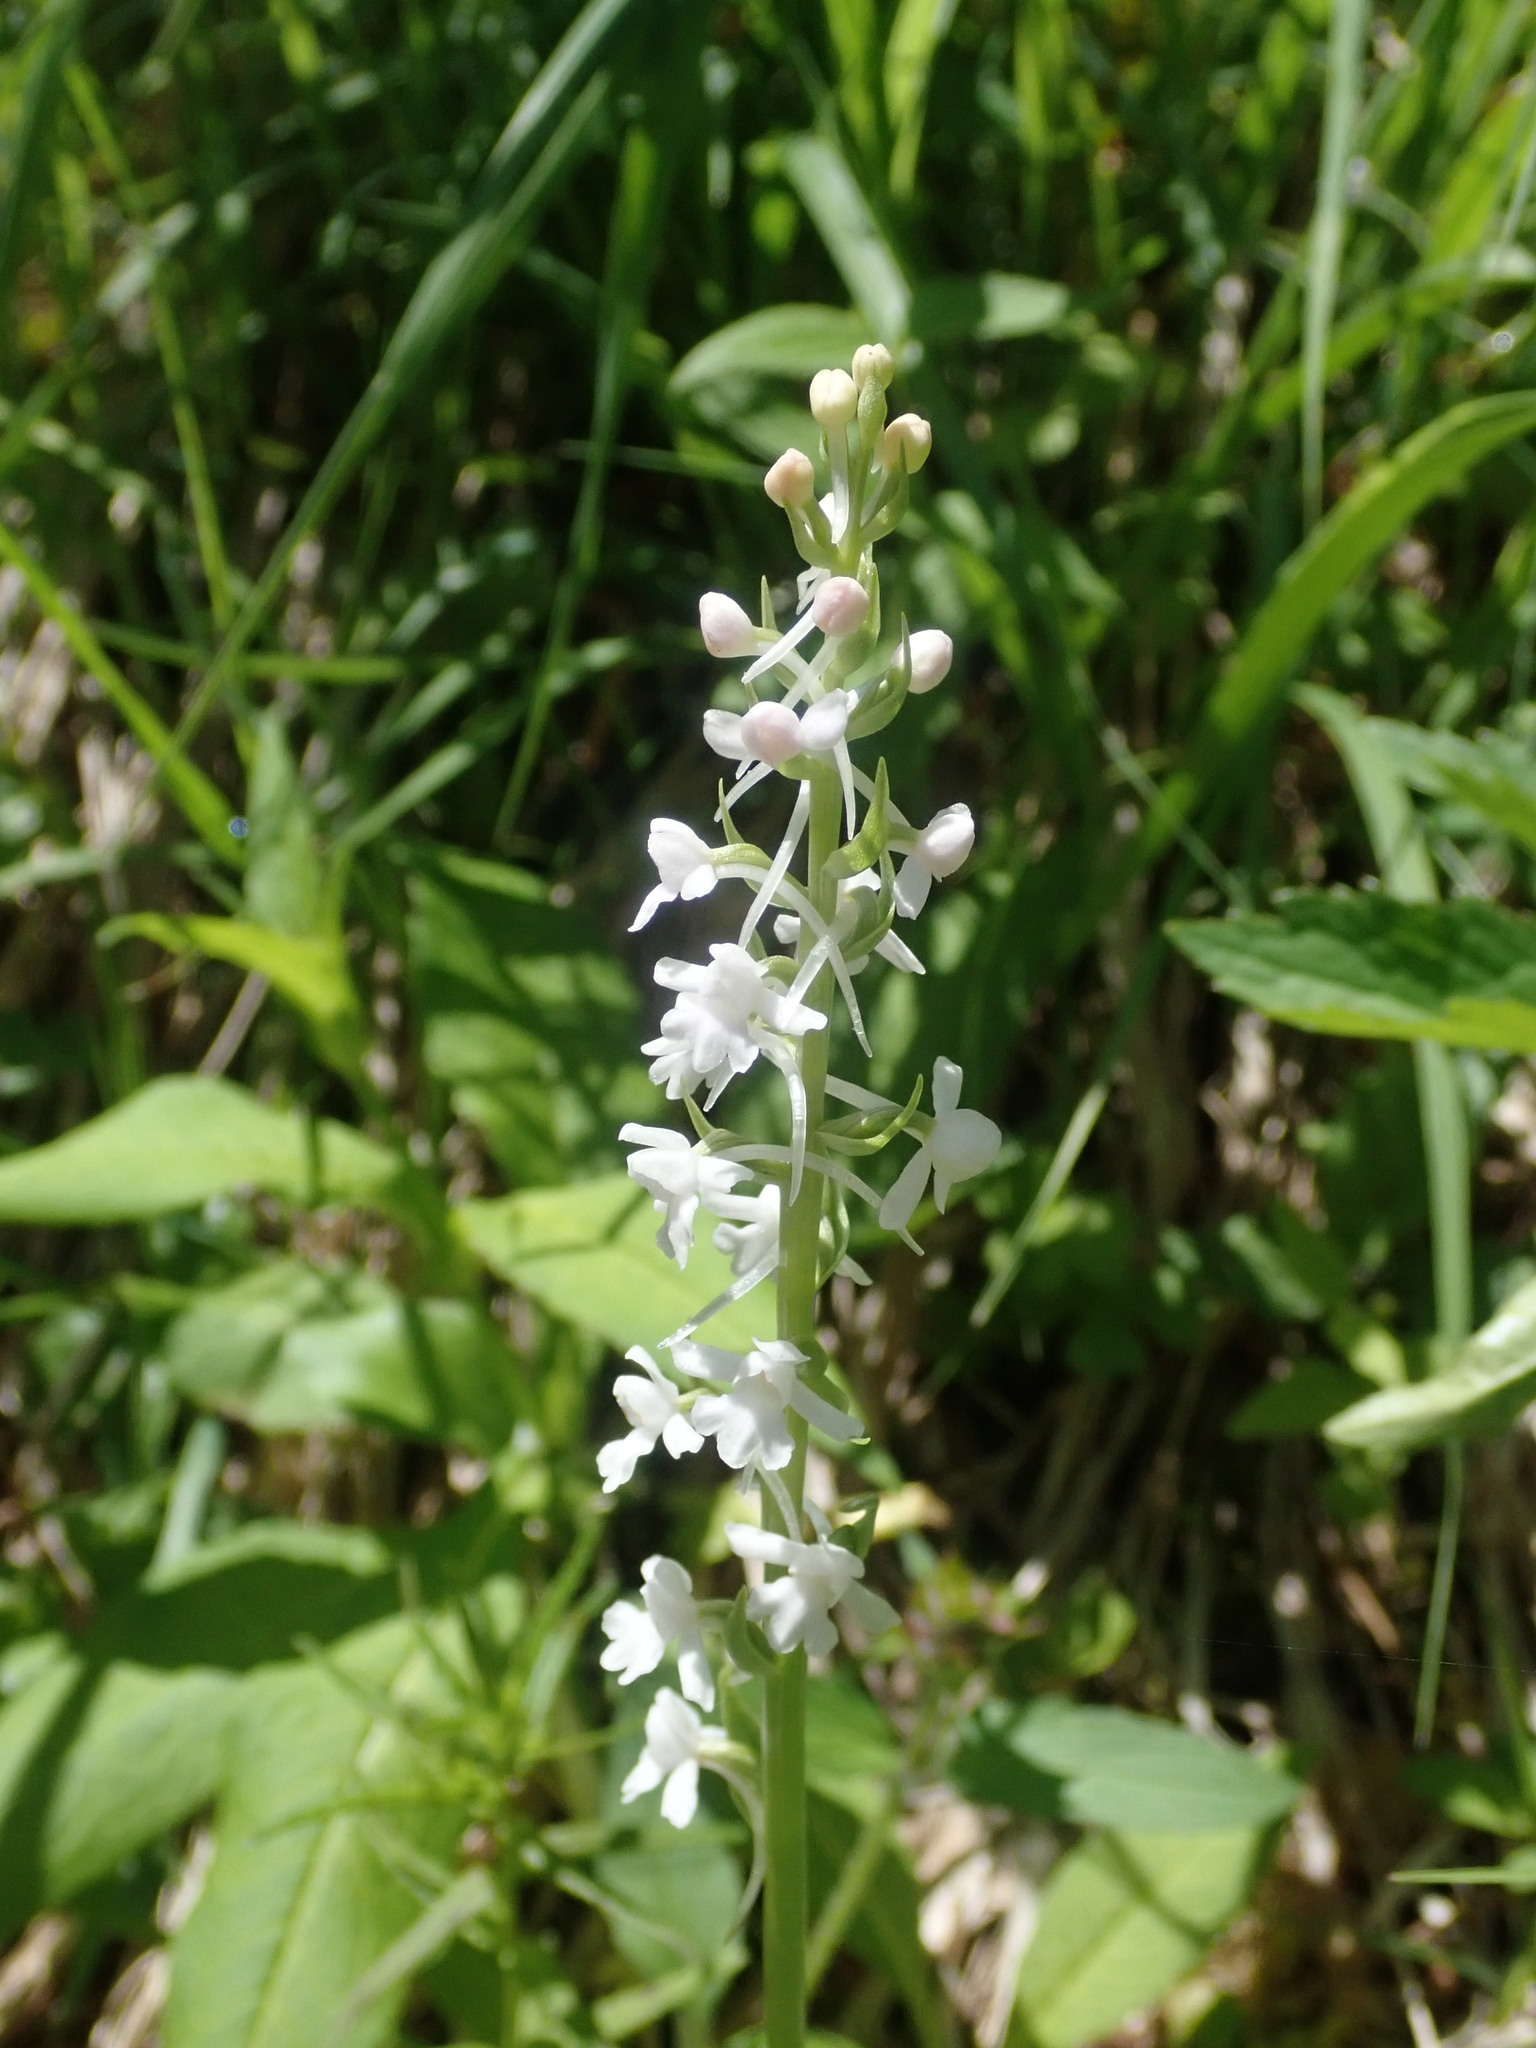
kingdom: Plantae
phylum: Tracheophyta
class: Liliopsida
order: Asparagales
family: Orchidaceae
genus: Gymnadenia
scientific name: Gymnadenia conopsea
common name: Fragrant orchid
